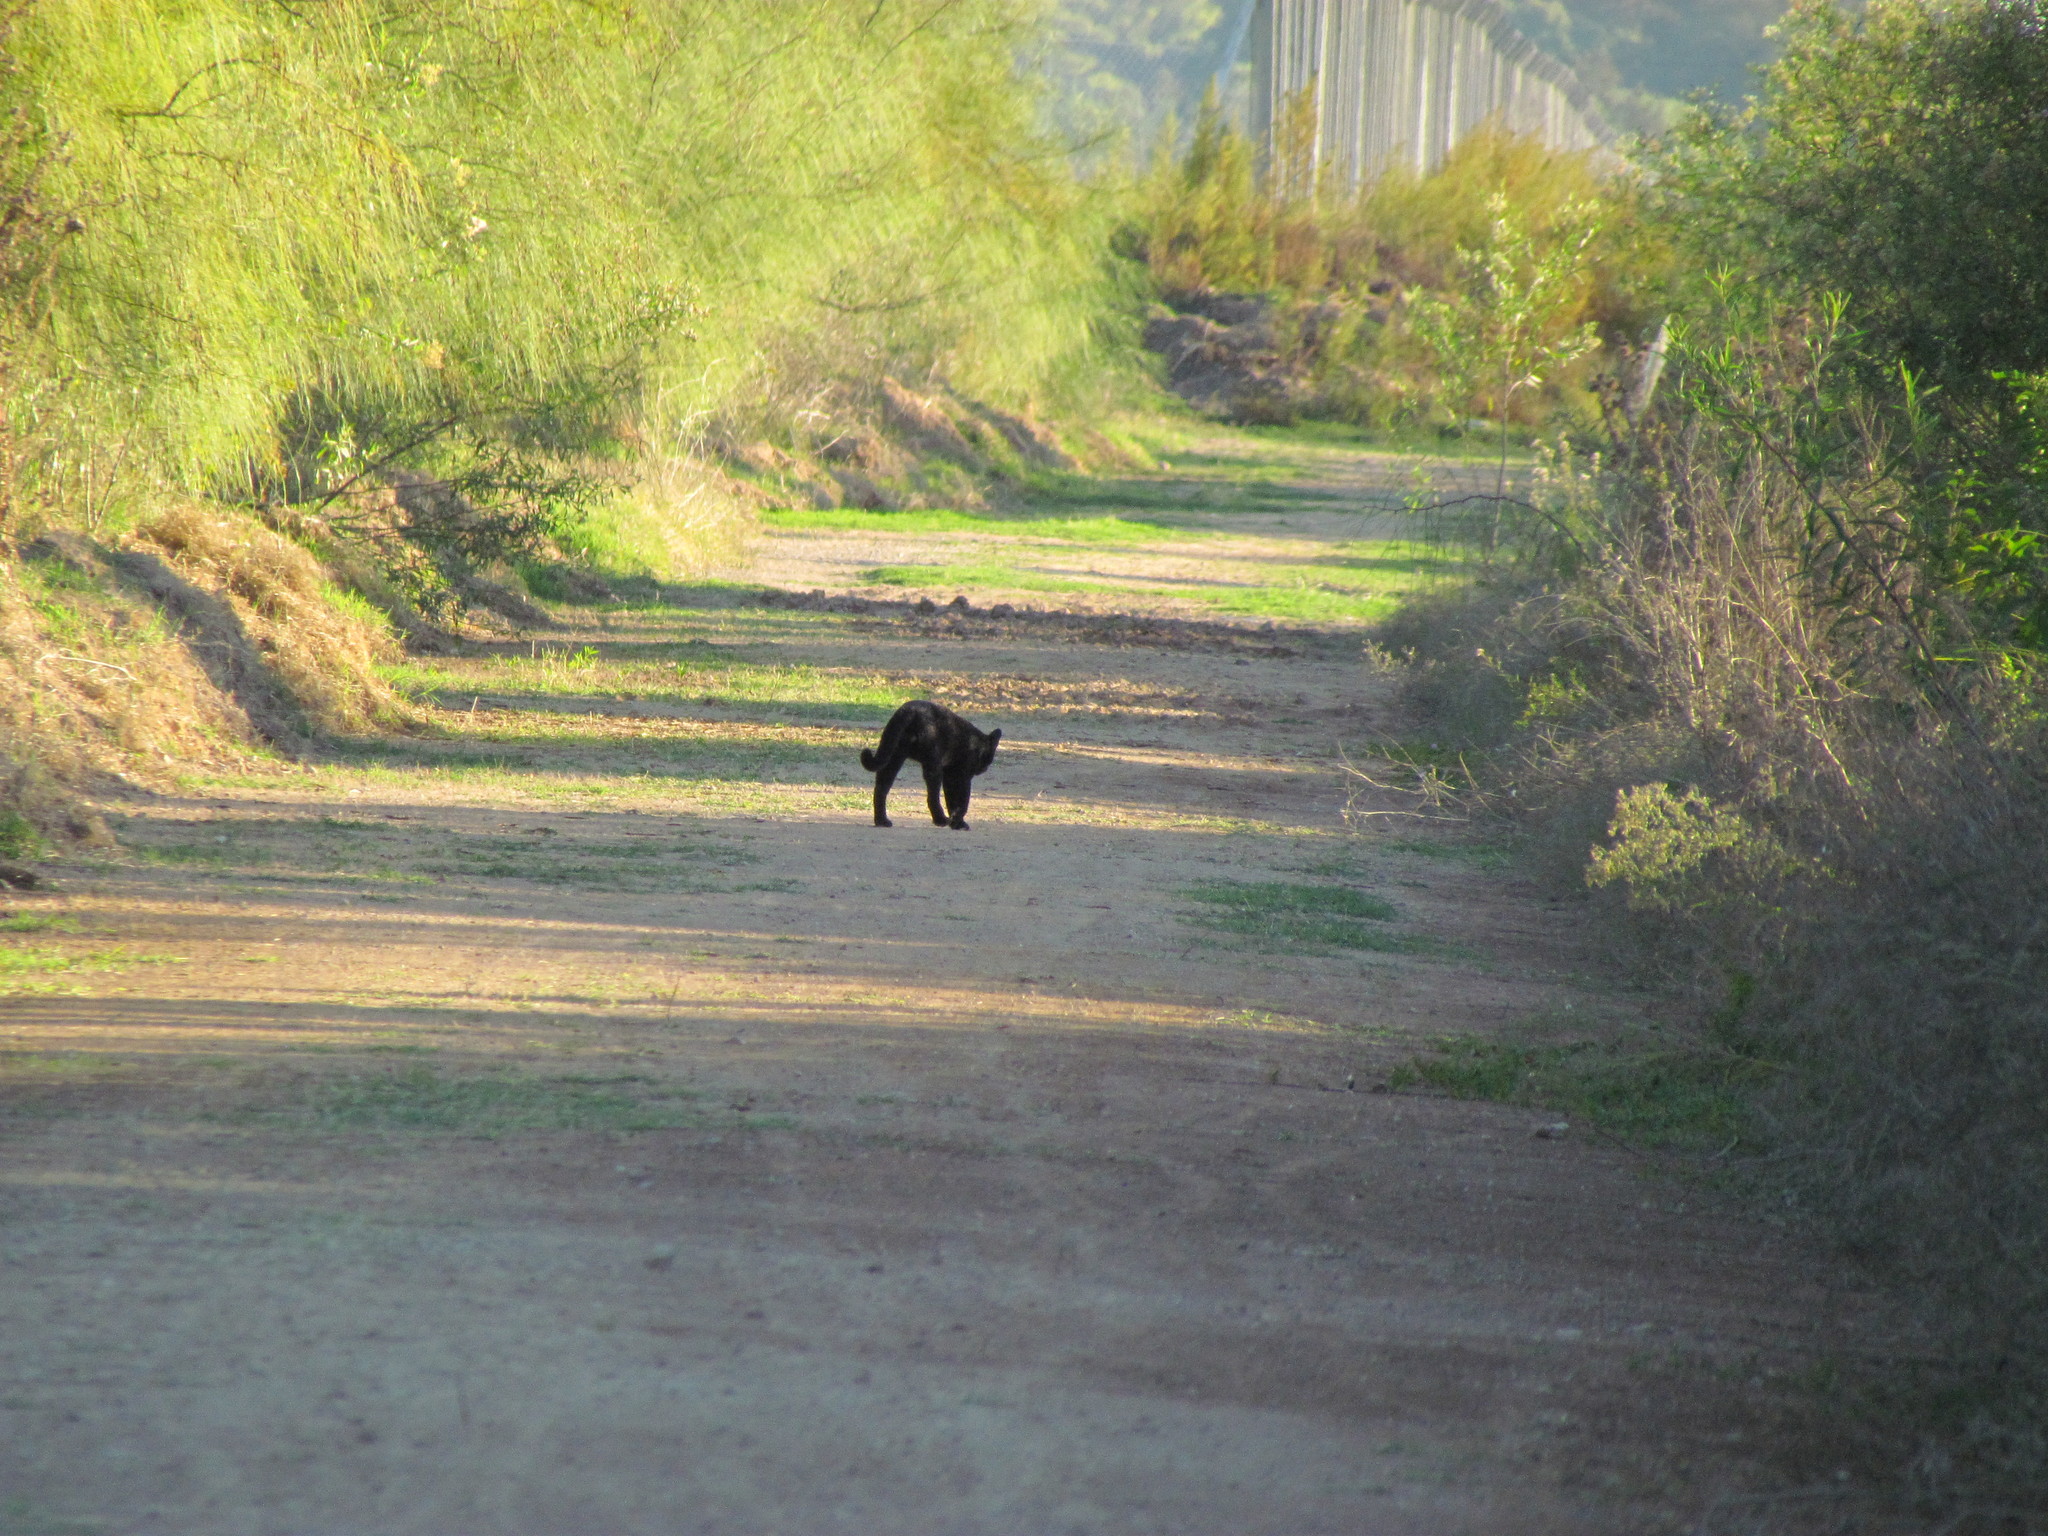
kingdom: Animalia
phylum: Chordata
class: Mammalia
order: Carnivora
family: Felidae
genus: Leopardus
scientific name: Leopardus geoffroyi
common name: Geoffroy's cat
